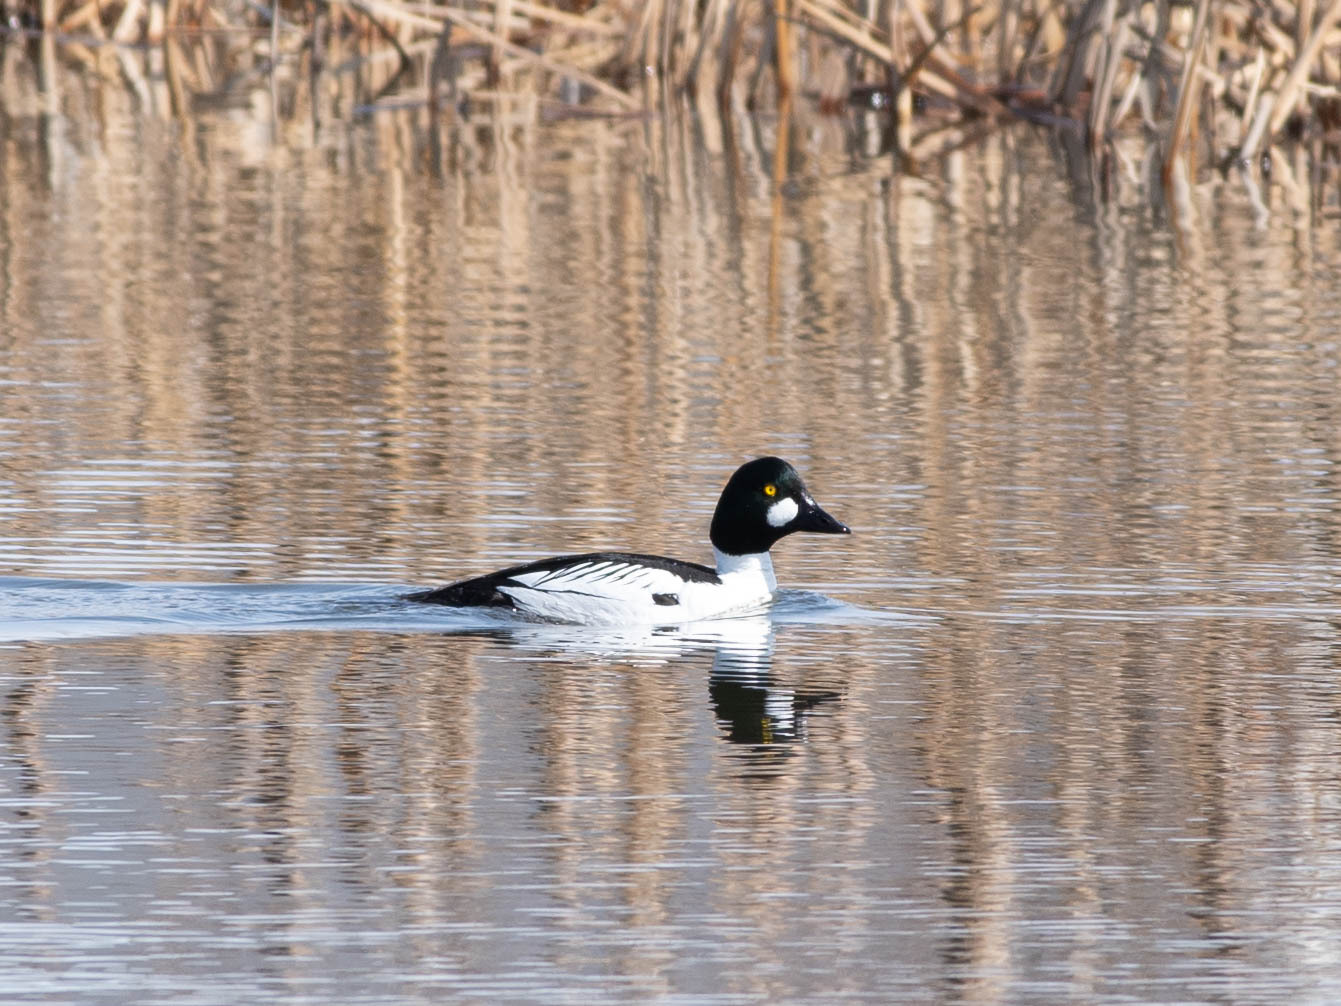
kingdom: Animalia
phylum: Chordata
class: Aves
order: Anseriformes
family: Anatidae
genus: Bucephala
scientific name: Bucephala clangula
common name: Common goldeneye
